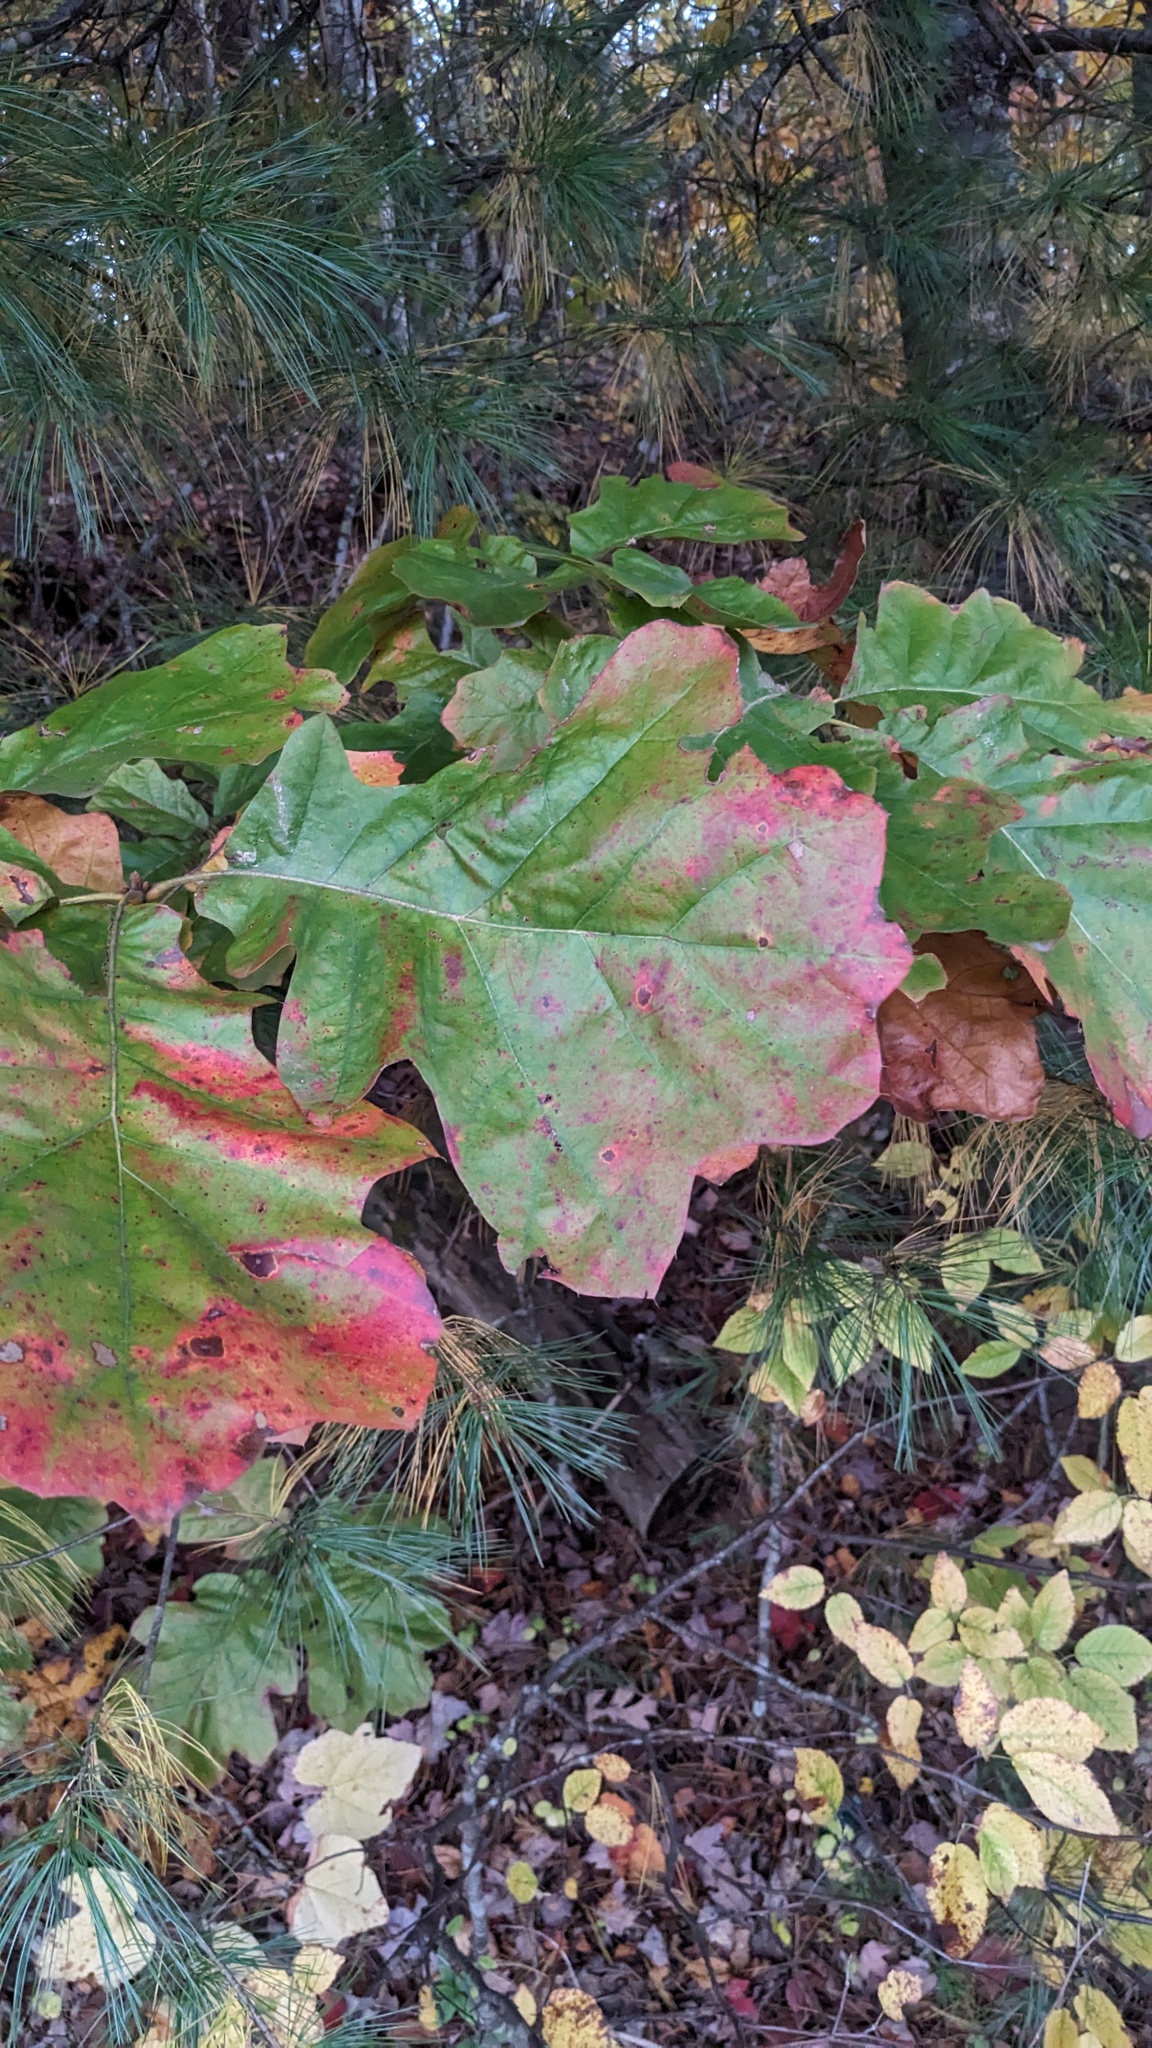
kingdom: Plantae
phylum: Tracheophyta
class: Magnoliopsida
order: Fagales
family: Fagaceae
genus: Quercus
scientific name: Quercus velutina
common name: Black oak
